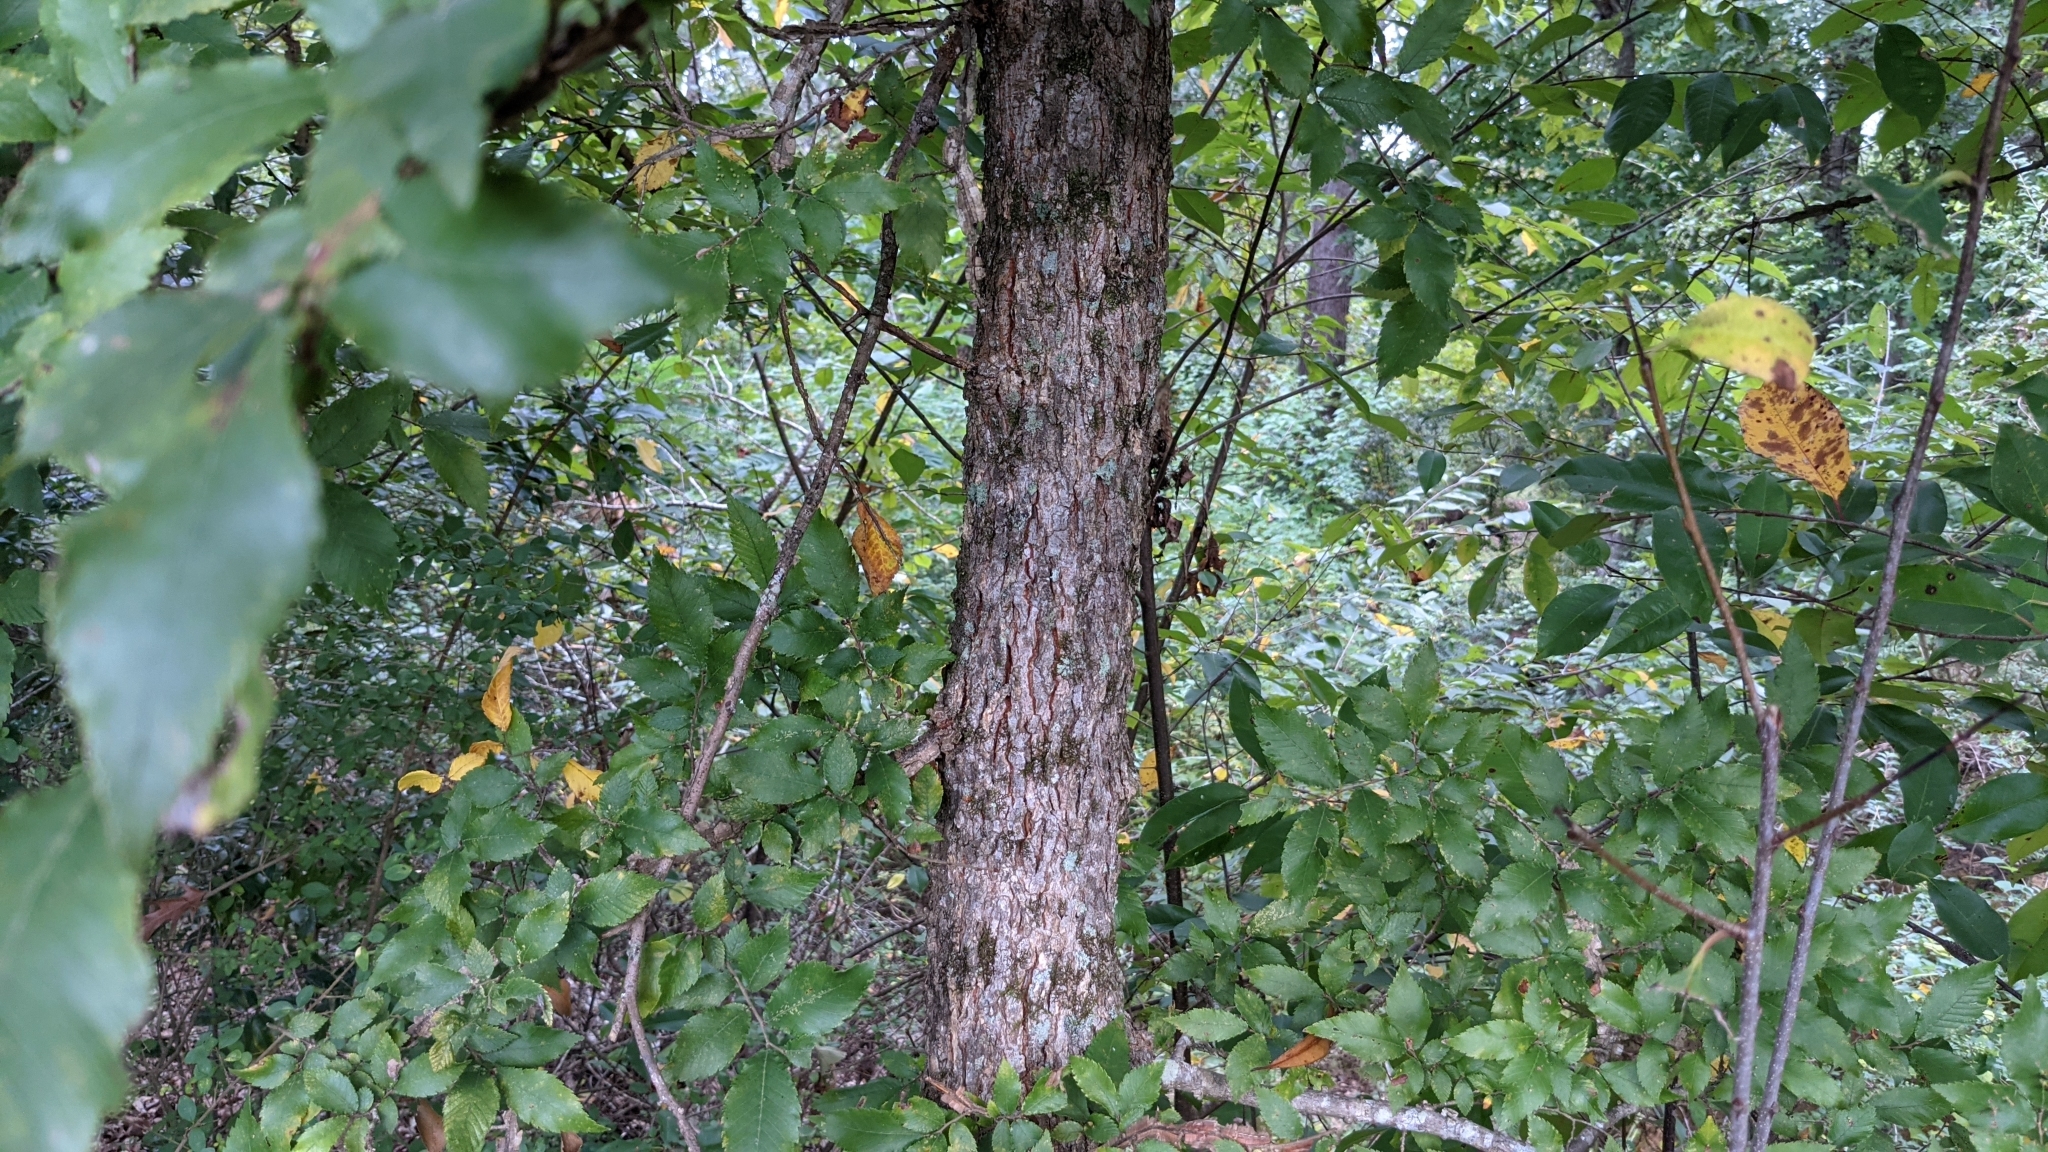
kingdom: Plantae
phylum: Tracheophyta
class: Magnoliopsida
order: Rosales
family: Ulmaceae
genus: Ulmus
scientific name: Ulmus alata
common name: Winged elm
